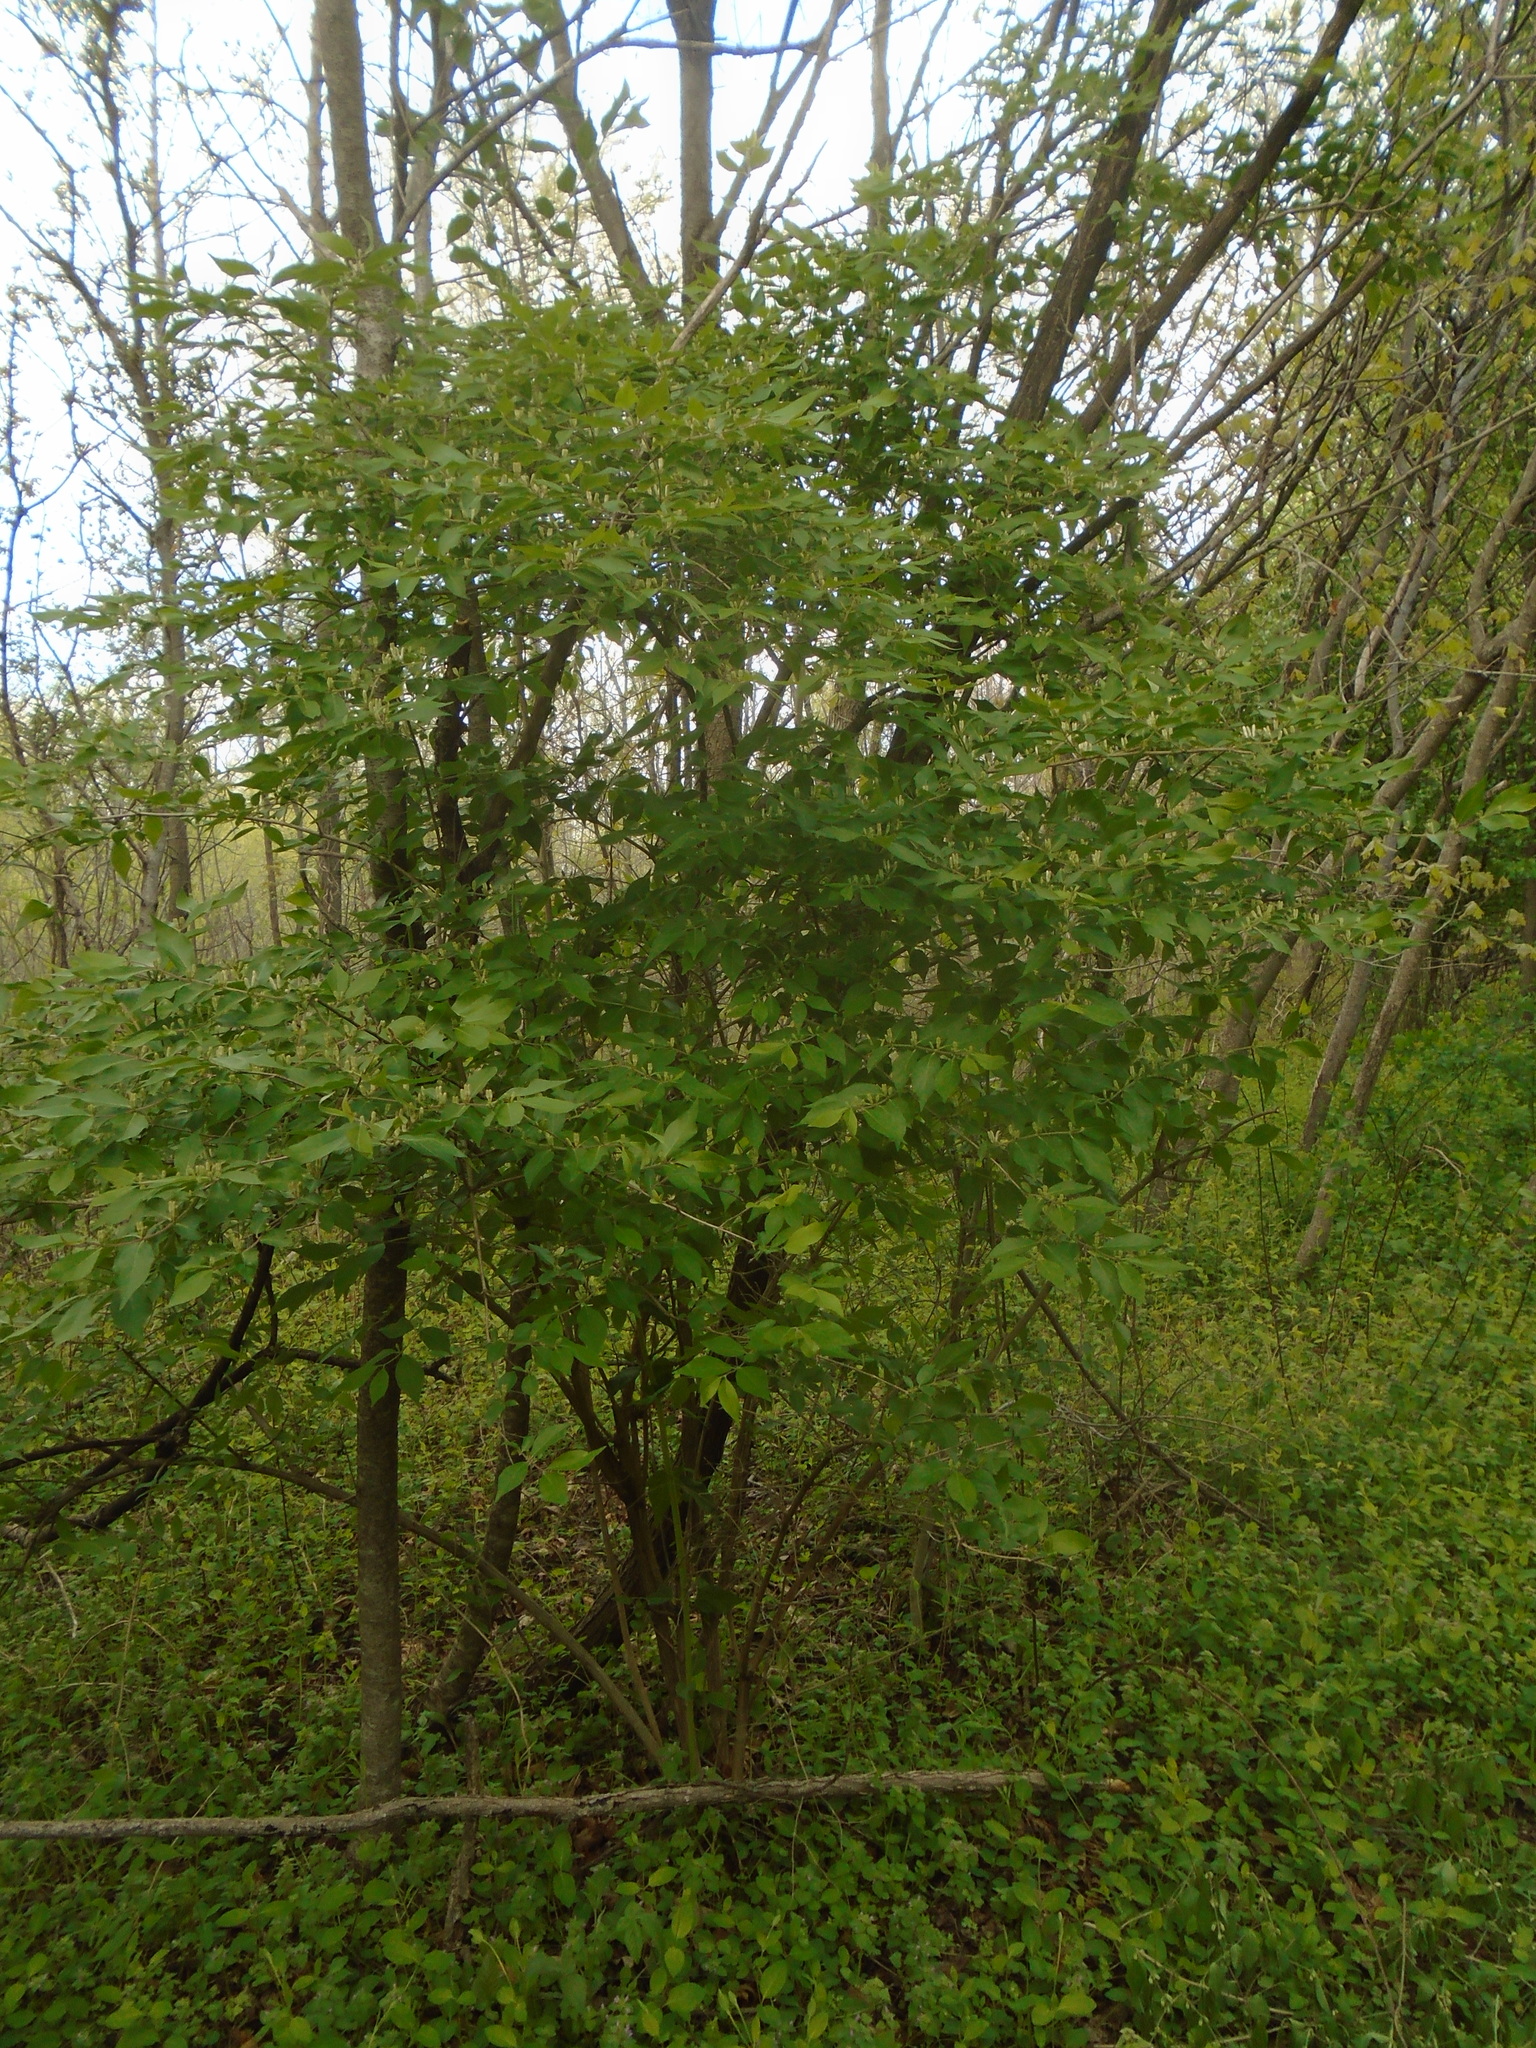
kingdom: Plantae
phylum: Tracheophyta
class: Magnoliopsida
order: Dipsacales
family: Caprifoliaceae
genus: Lonicera
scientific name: Lonicera maackii
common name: Amur honeysuckle
